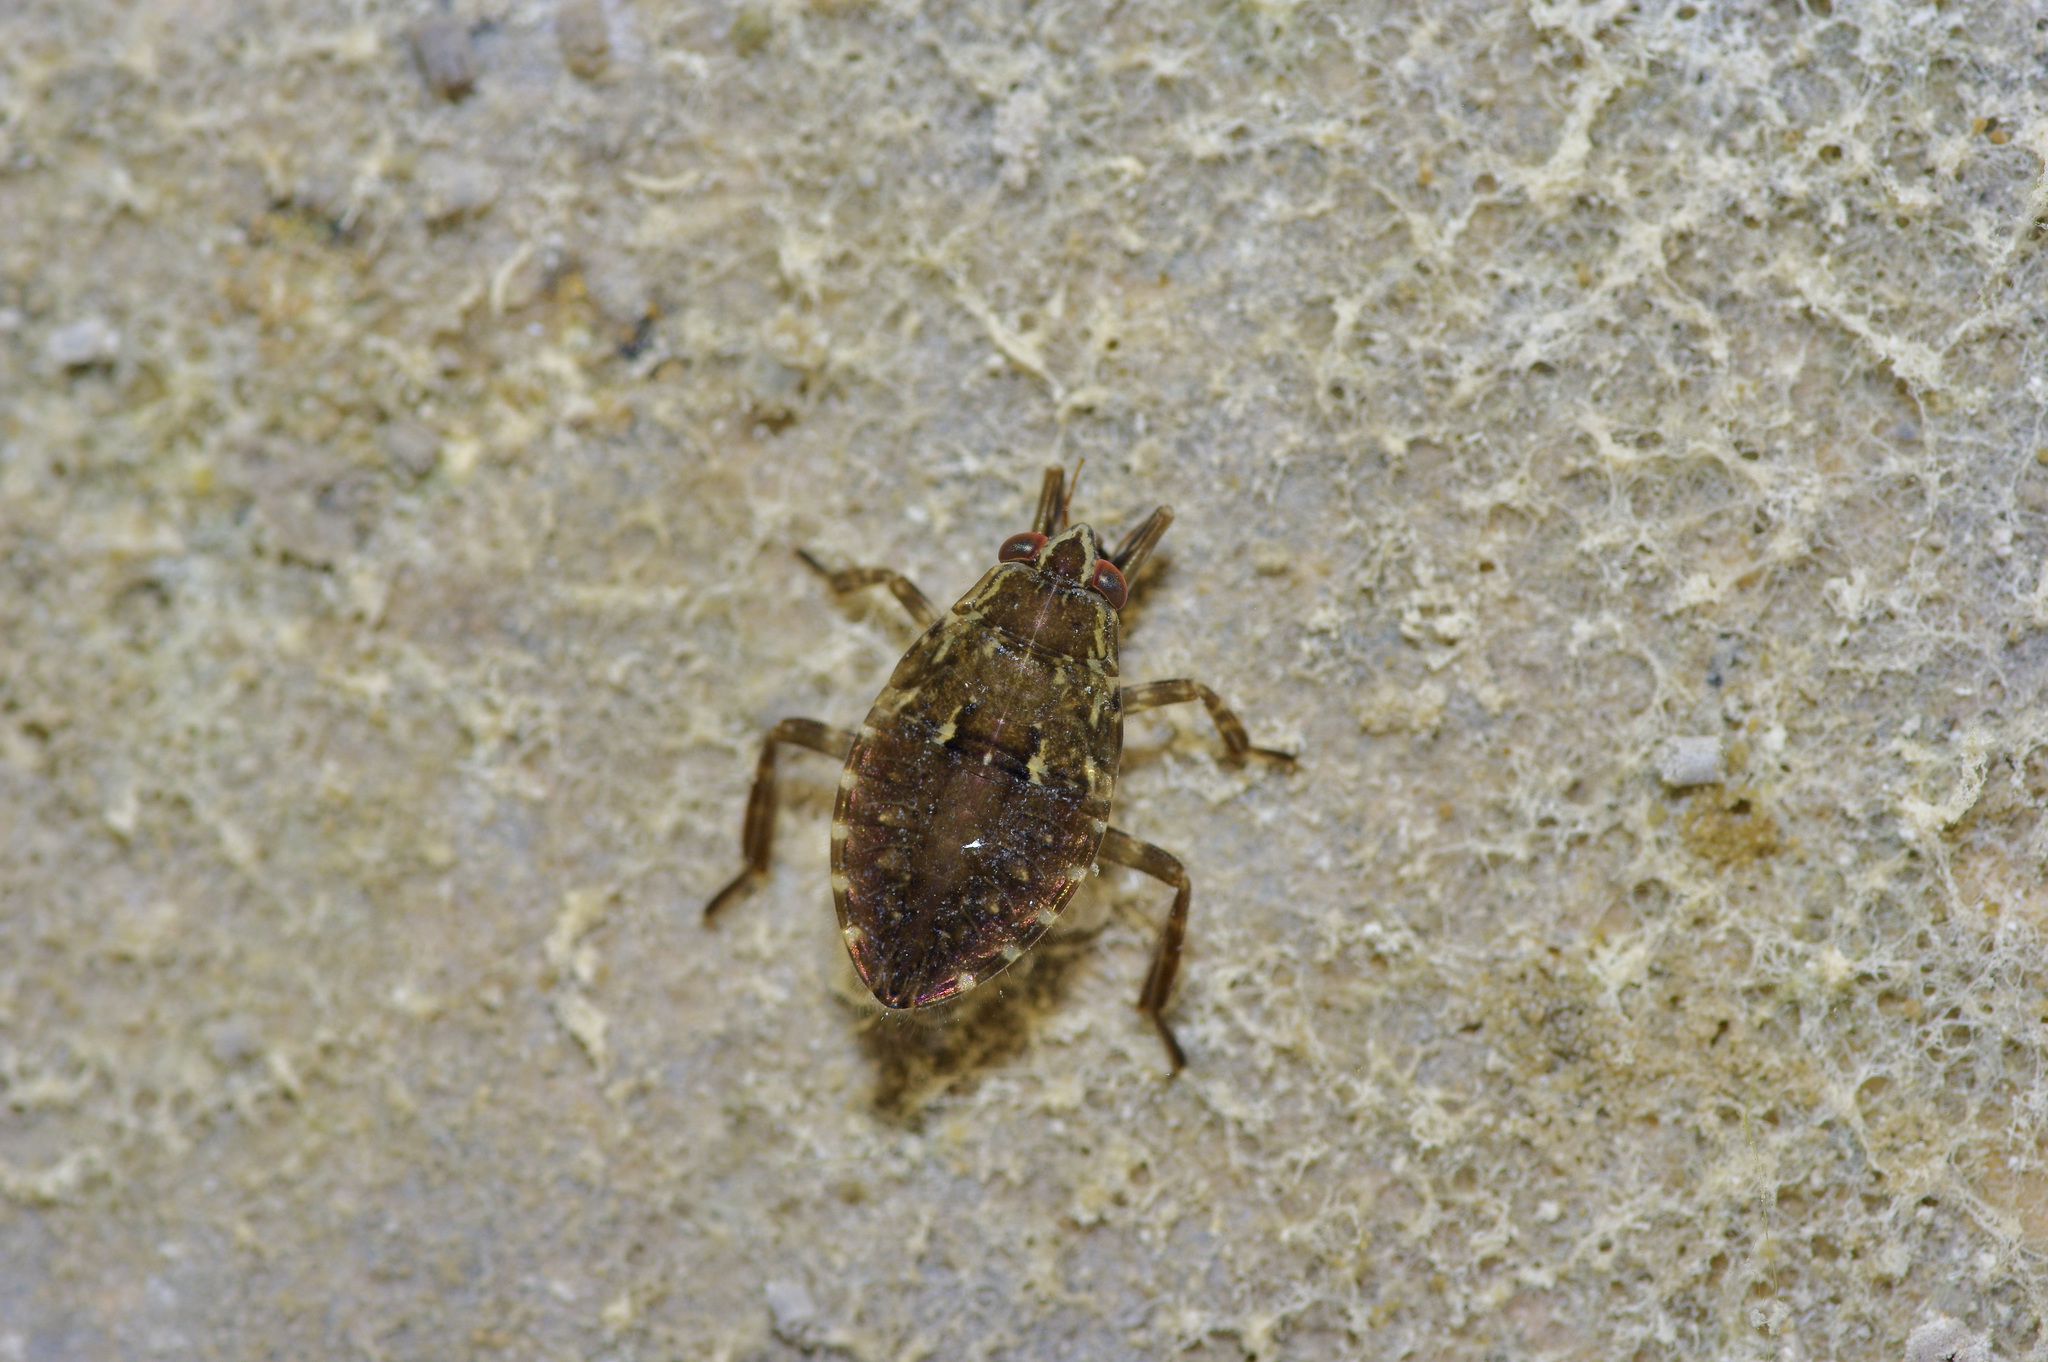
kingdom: Animalia
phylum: Arthropoda
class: Insecta
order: Hemiptera
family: Belostomatidae
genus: Belostoma
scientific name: Belostoma
